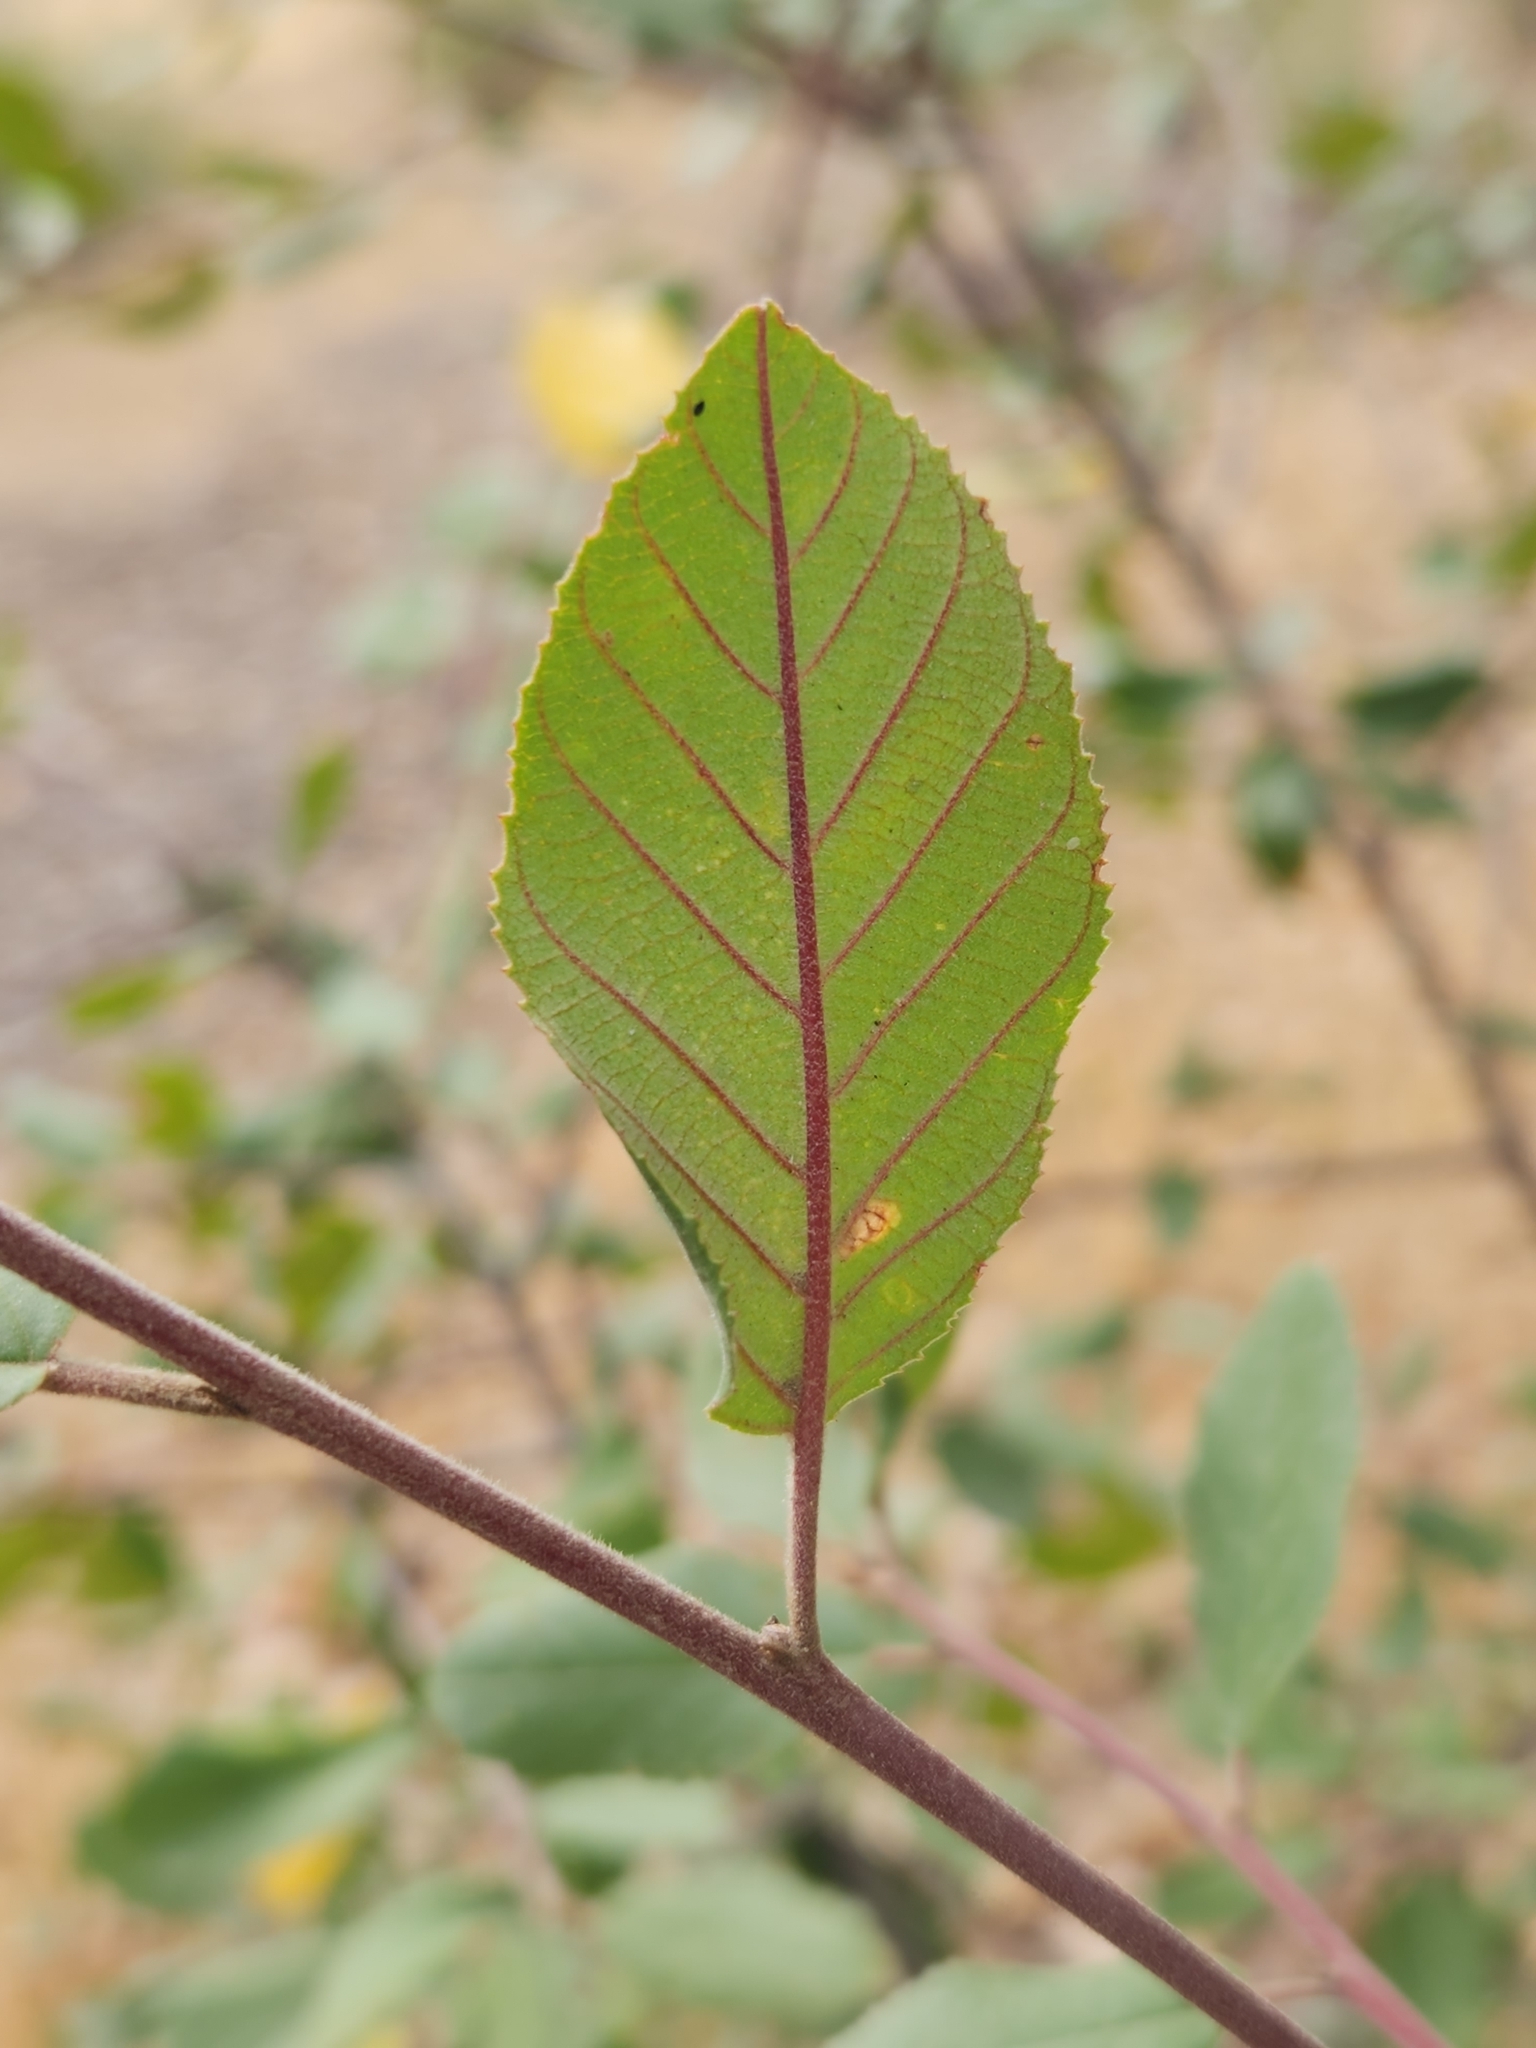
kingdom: Plantae
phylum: Tracheophyta
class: Magnoliopsida
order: Rosales
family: Rhamnaceae
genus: Frangula
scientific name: Frangula californica
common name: California buckthorn
